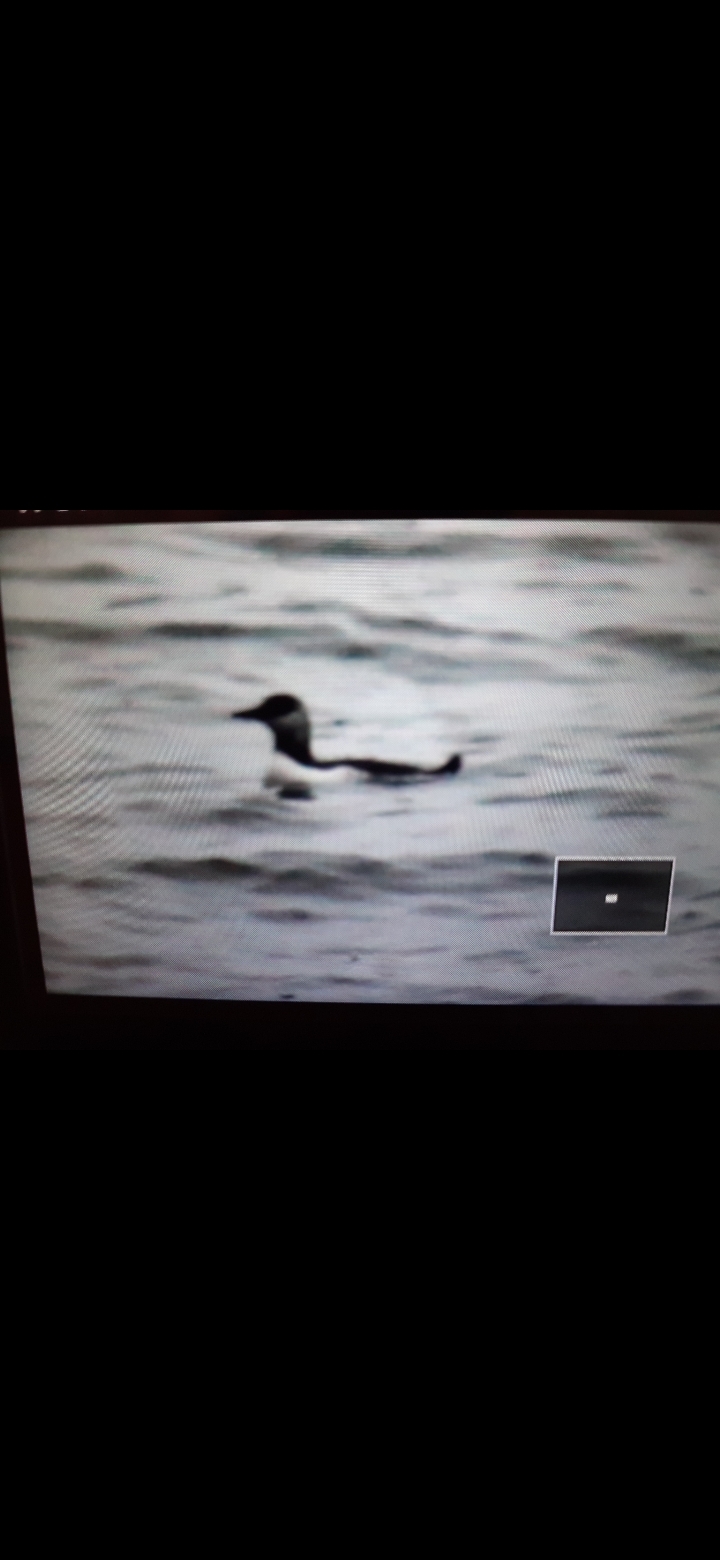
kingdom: Animalia
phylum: Chordata
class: Aves
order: Charadriiformes
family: Alcidae
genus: Uria
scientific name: Uria aalge
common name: Common murre
